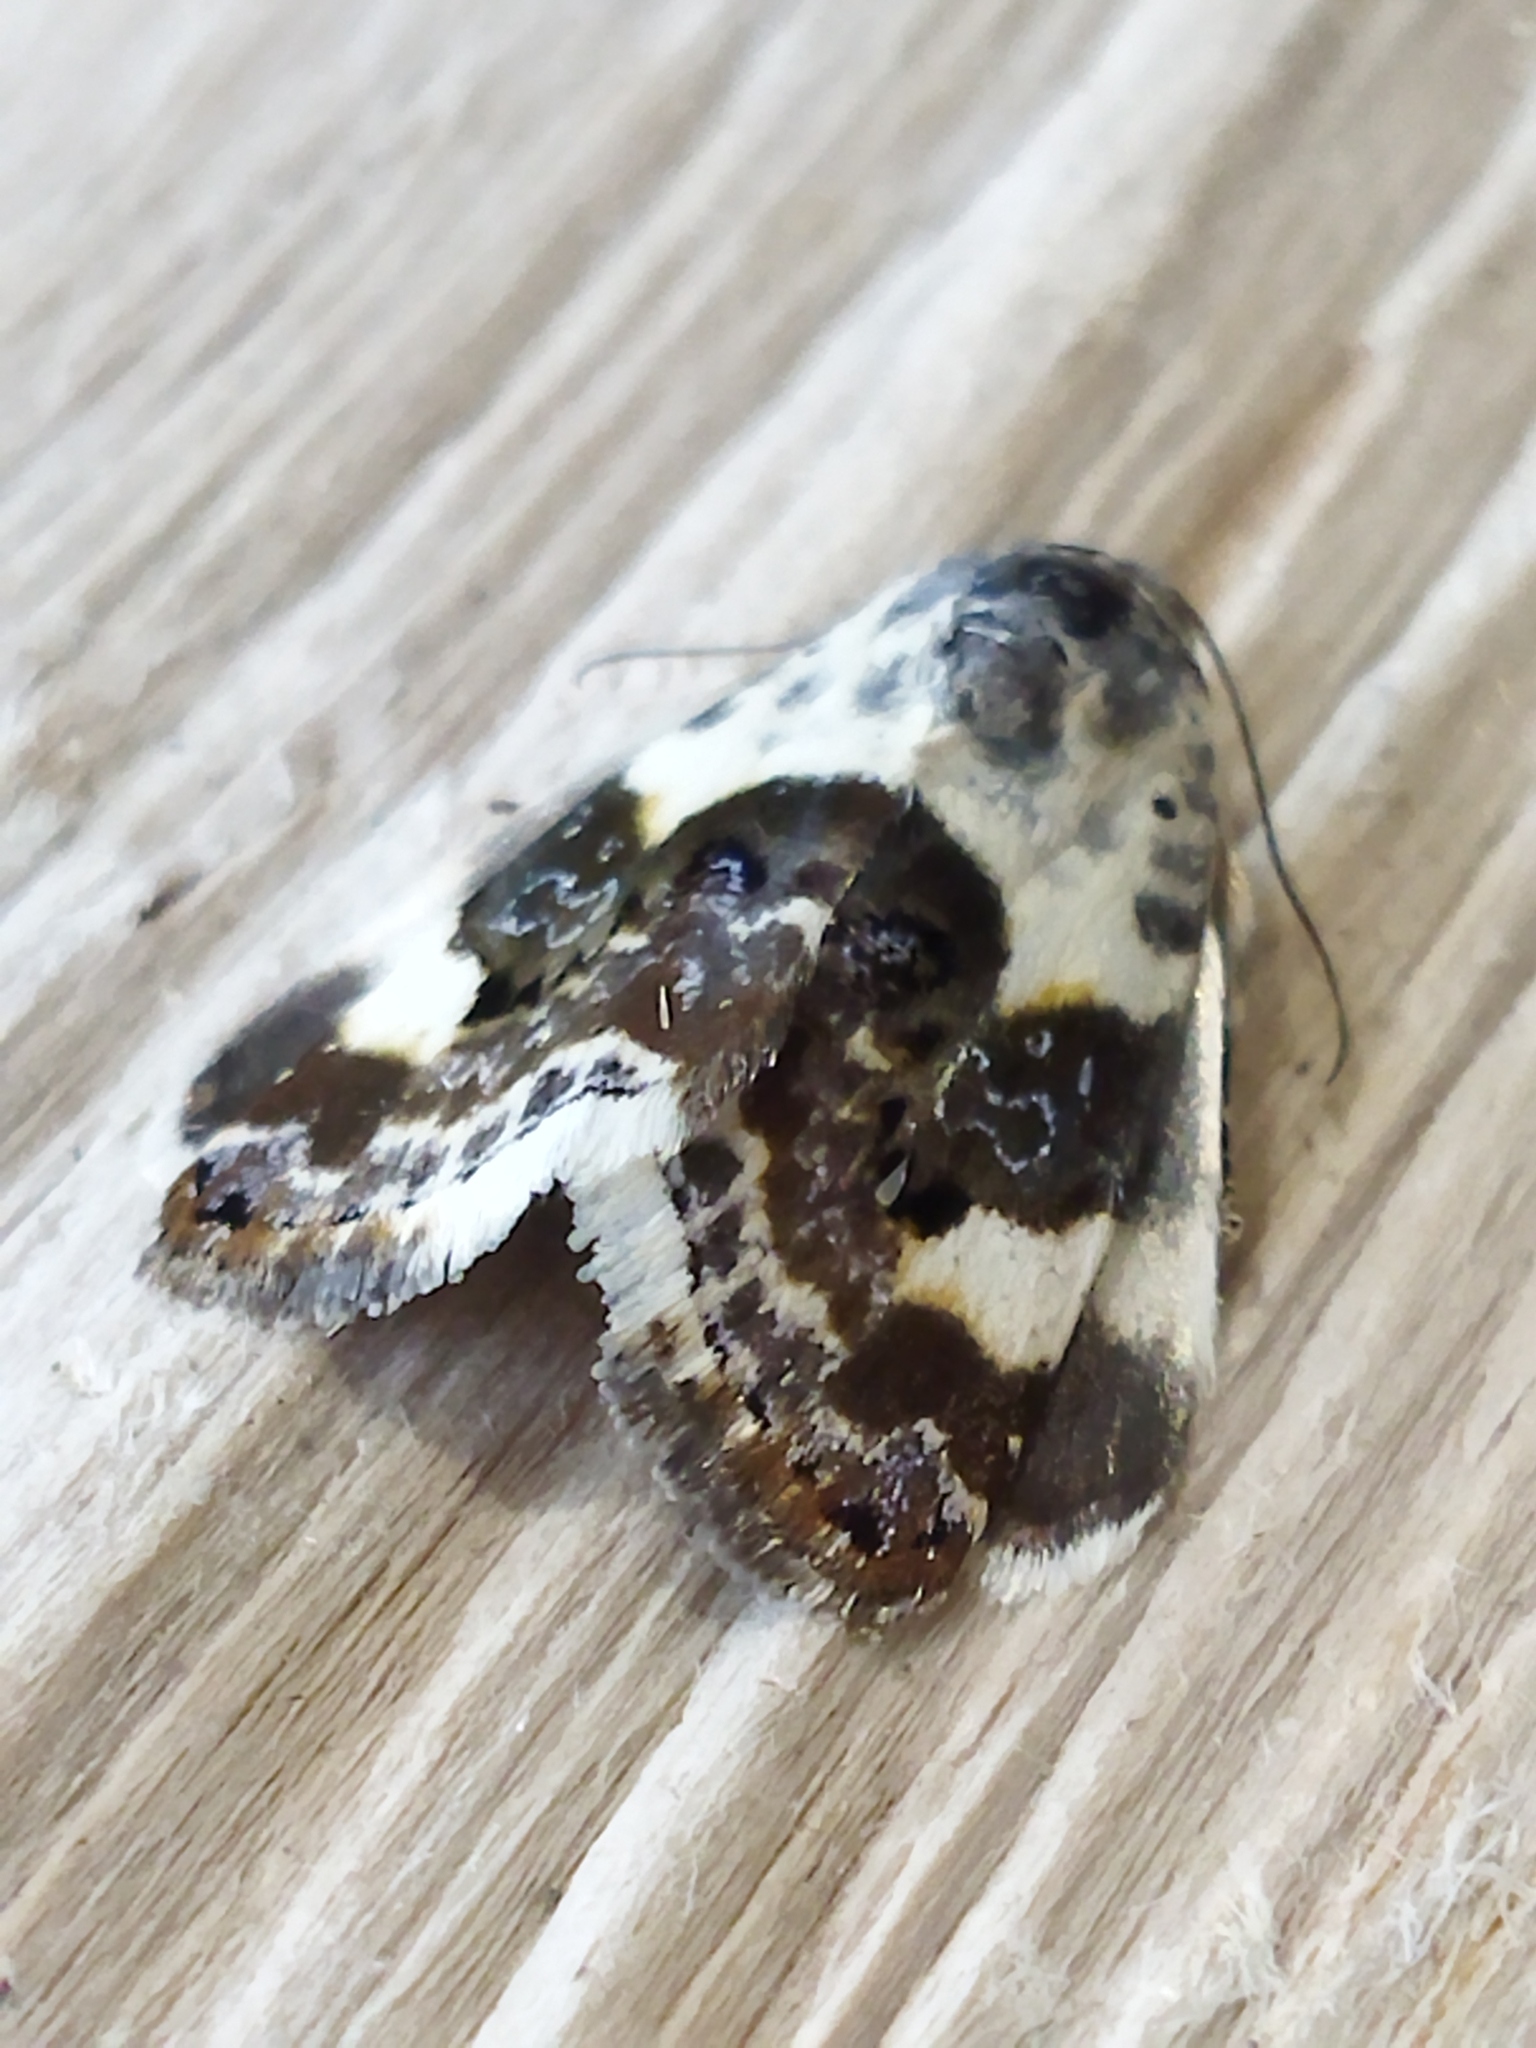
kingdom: Animalia
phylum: Arthropoda
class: Insecta
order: Lepidoptera
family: Noctuidae
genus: Acontia
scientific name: Acontia lucida
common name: Pale shoulder
